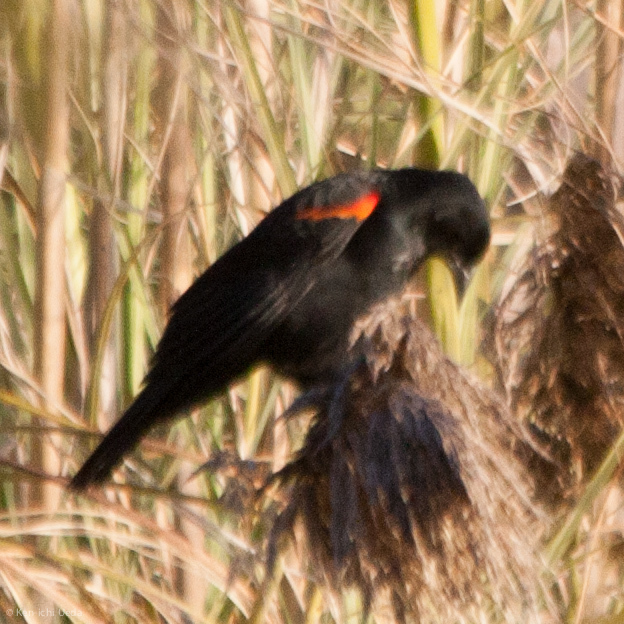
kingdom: Animalia
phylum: Chordata
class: Aves
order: Passeriformes
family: Icteridae
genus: Agelaius
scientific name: Agelaius phoeniceus
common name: Red-winged blackbird
